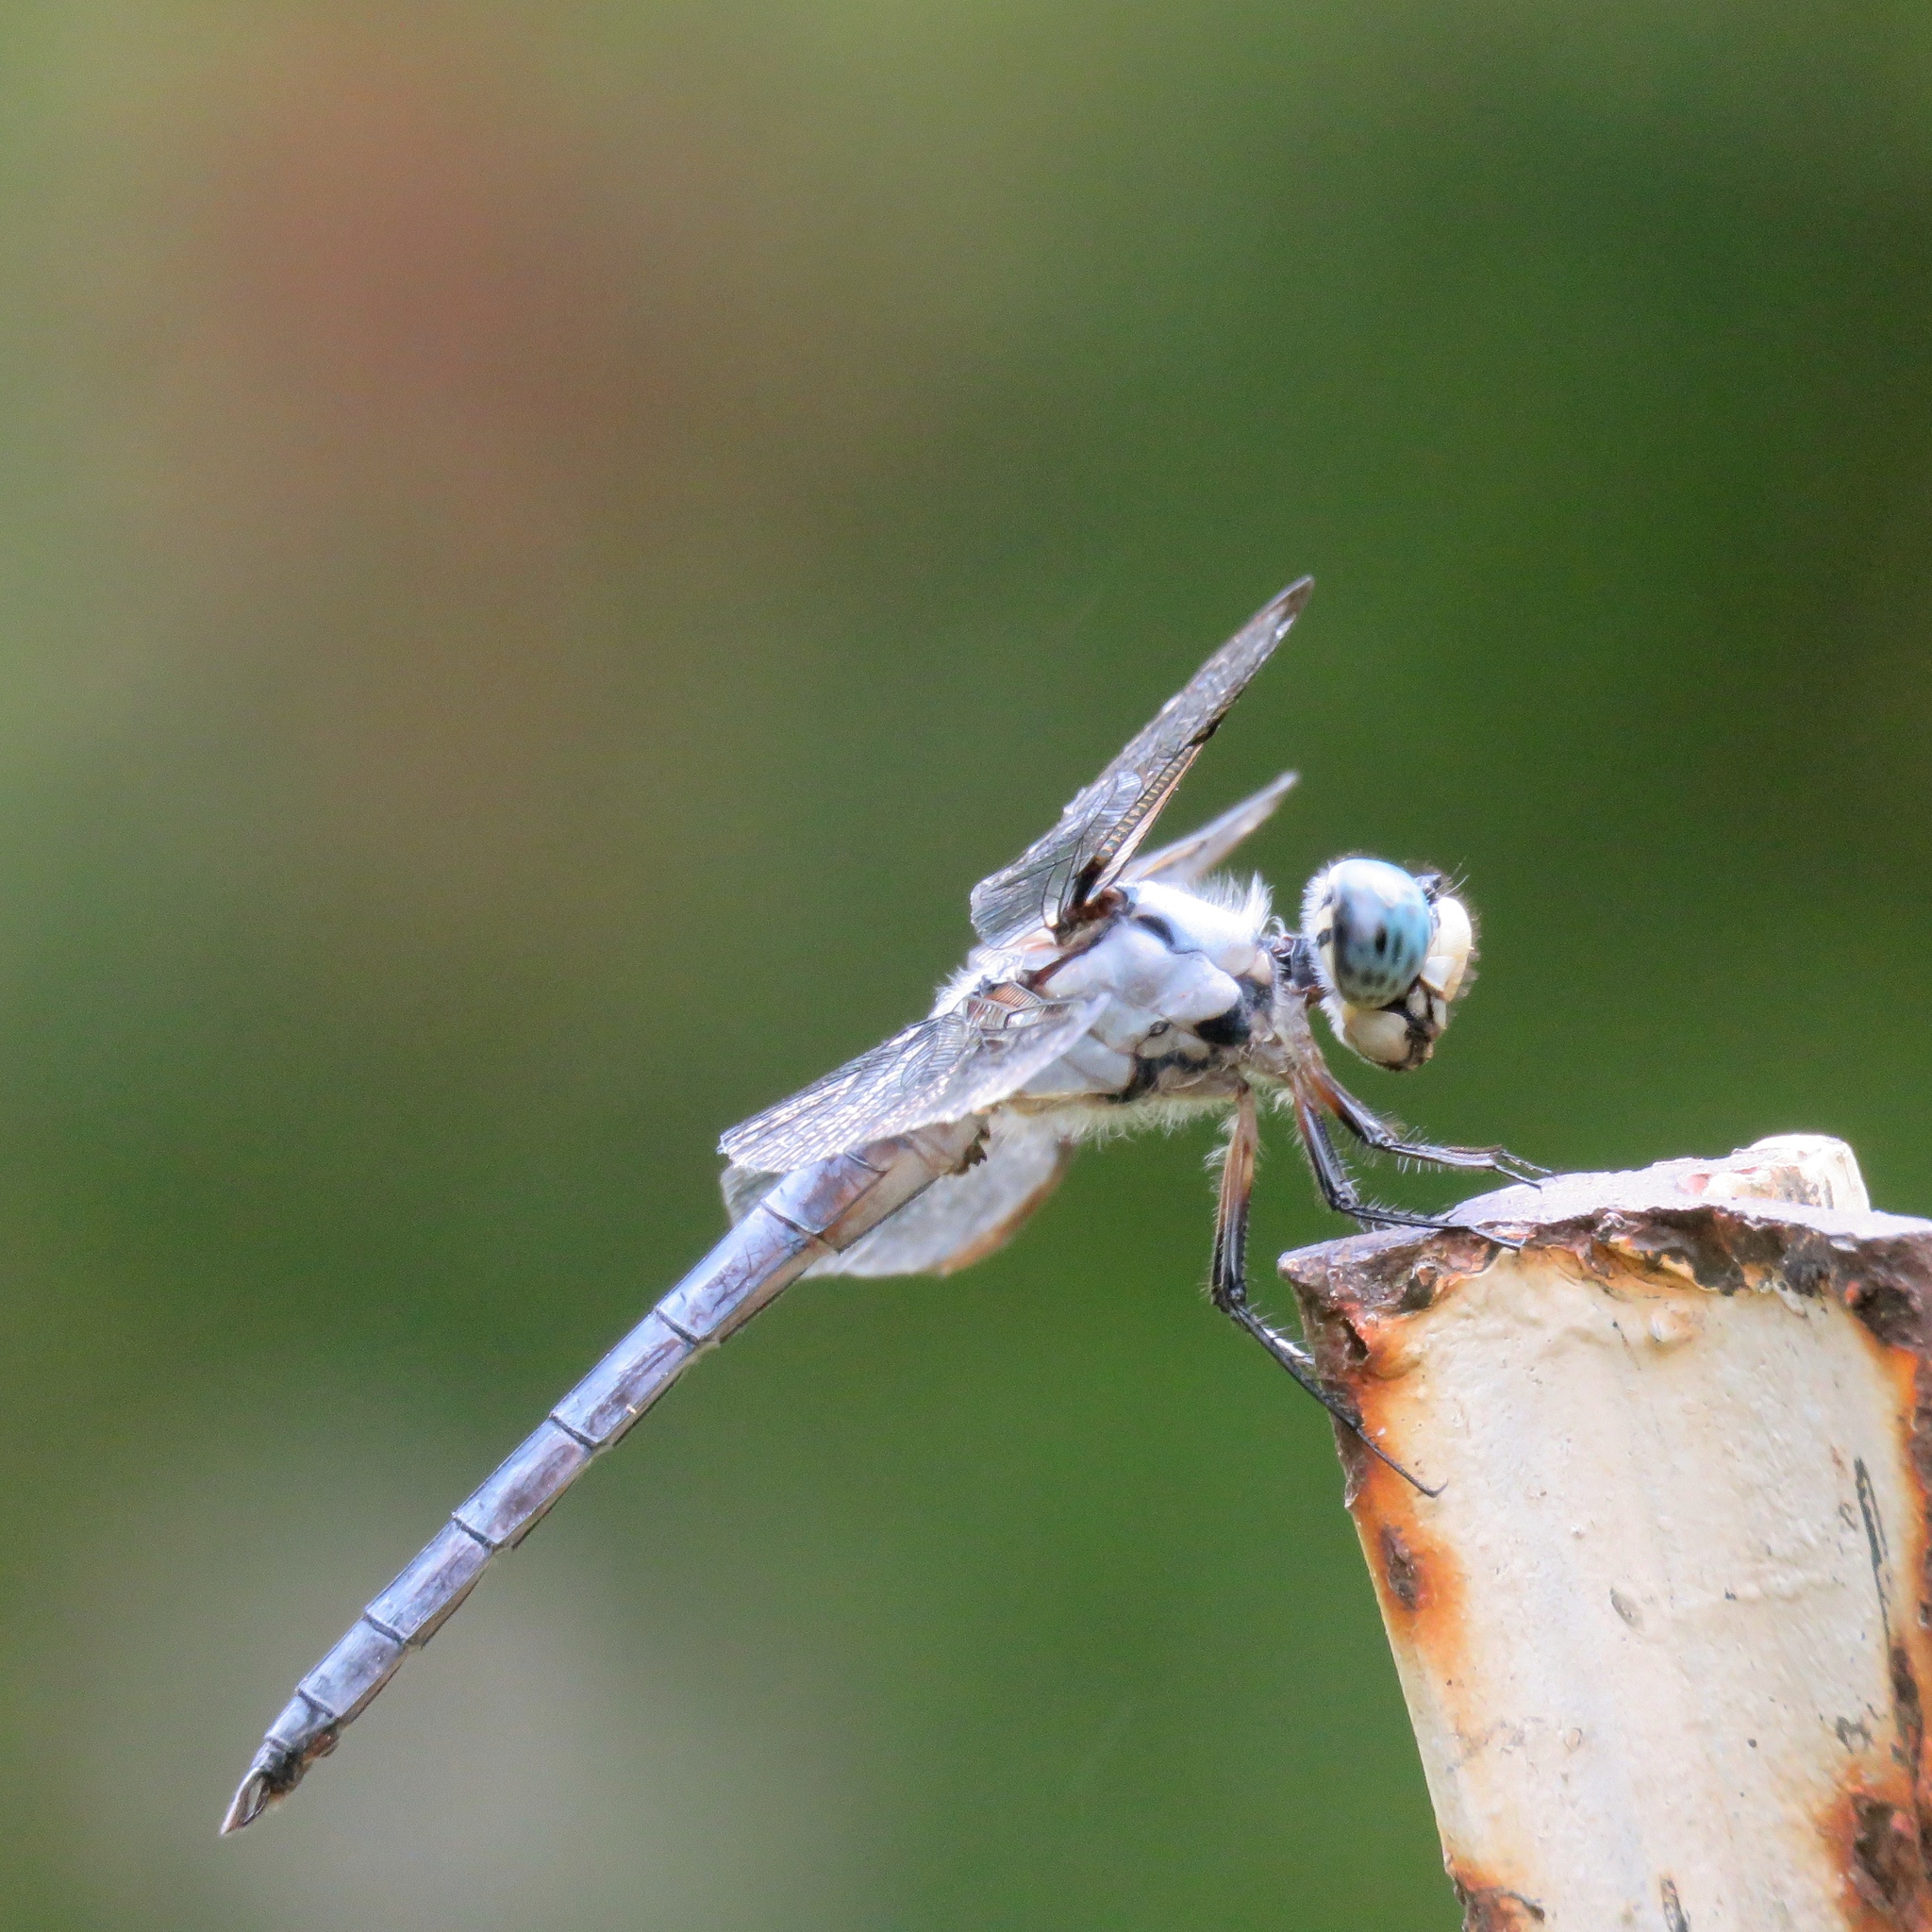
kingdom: Animalia
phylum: Arthropoda
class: Insecta
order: Odonata
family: Libellulidae
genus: Libellula
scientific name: Libellula vibrans
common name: Great blue skimmer
